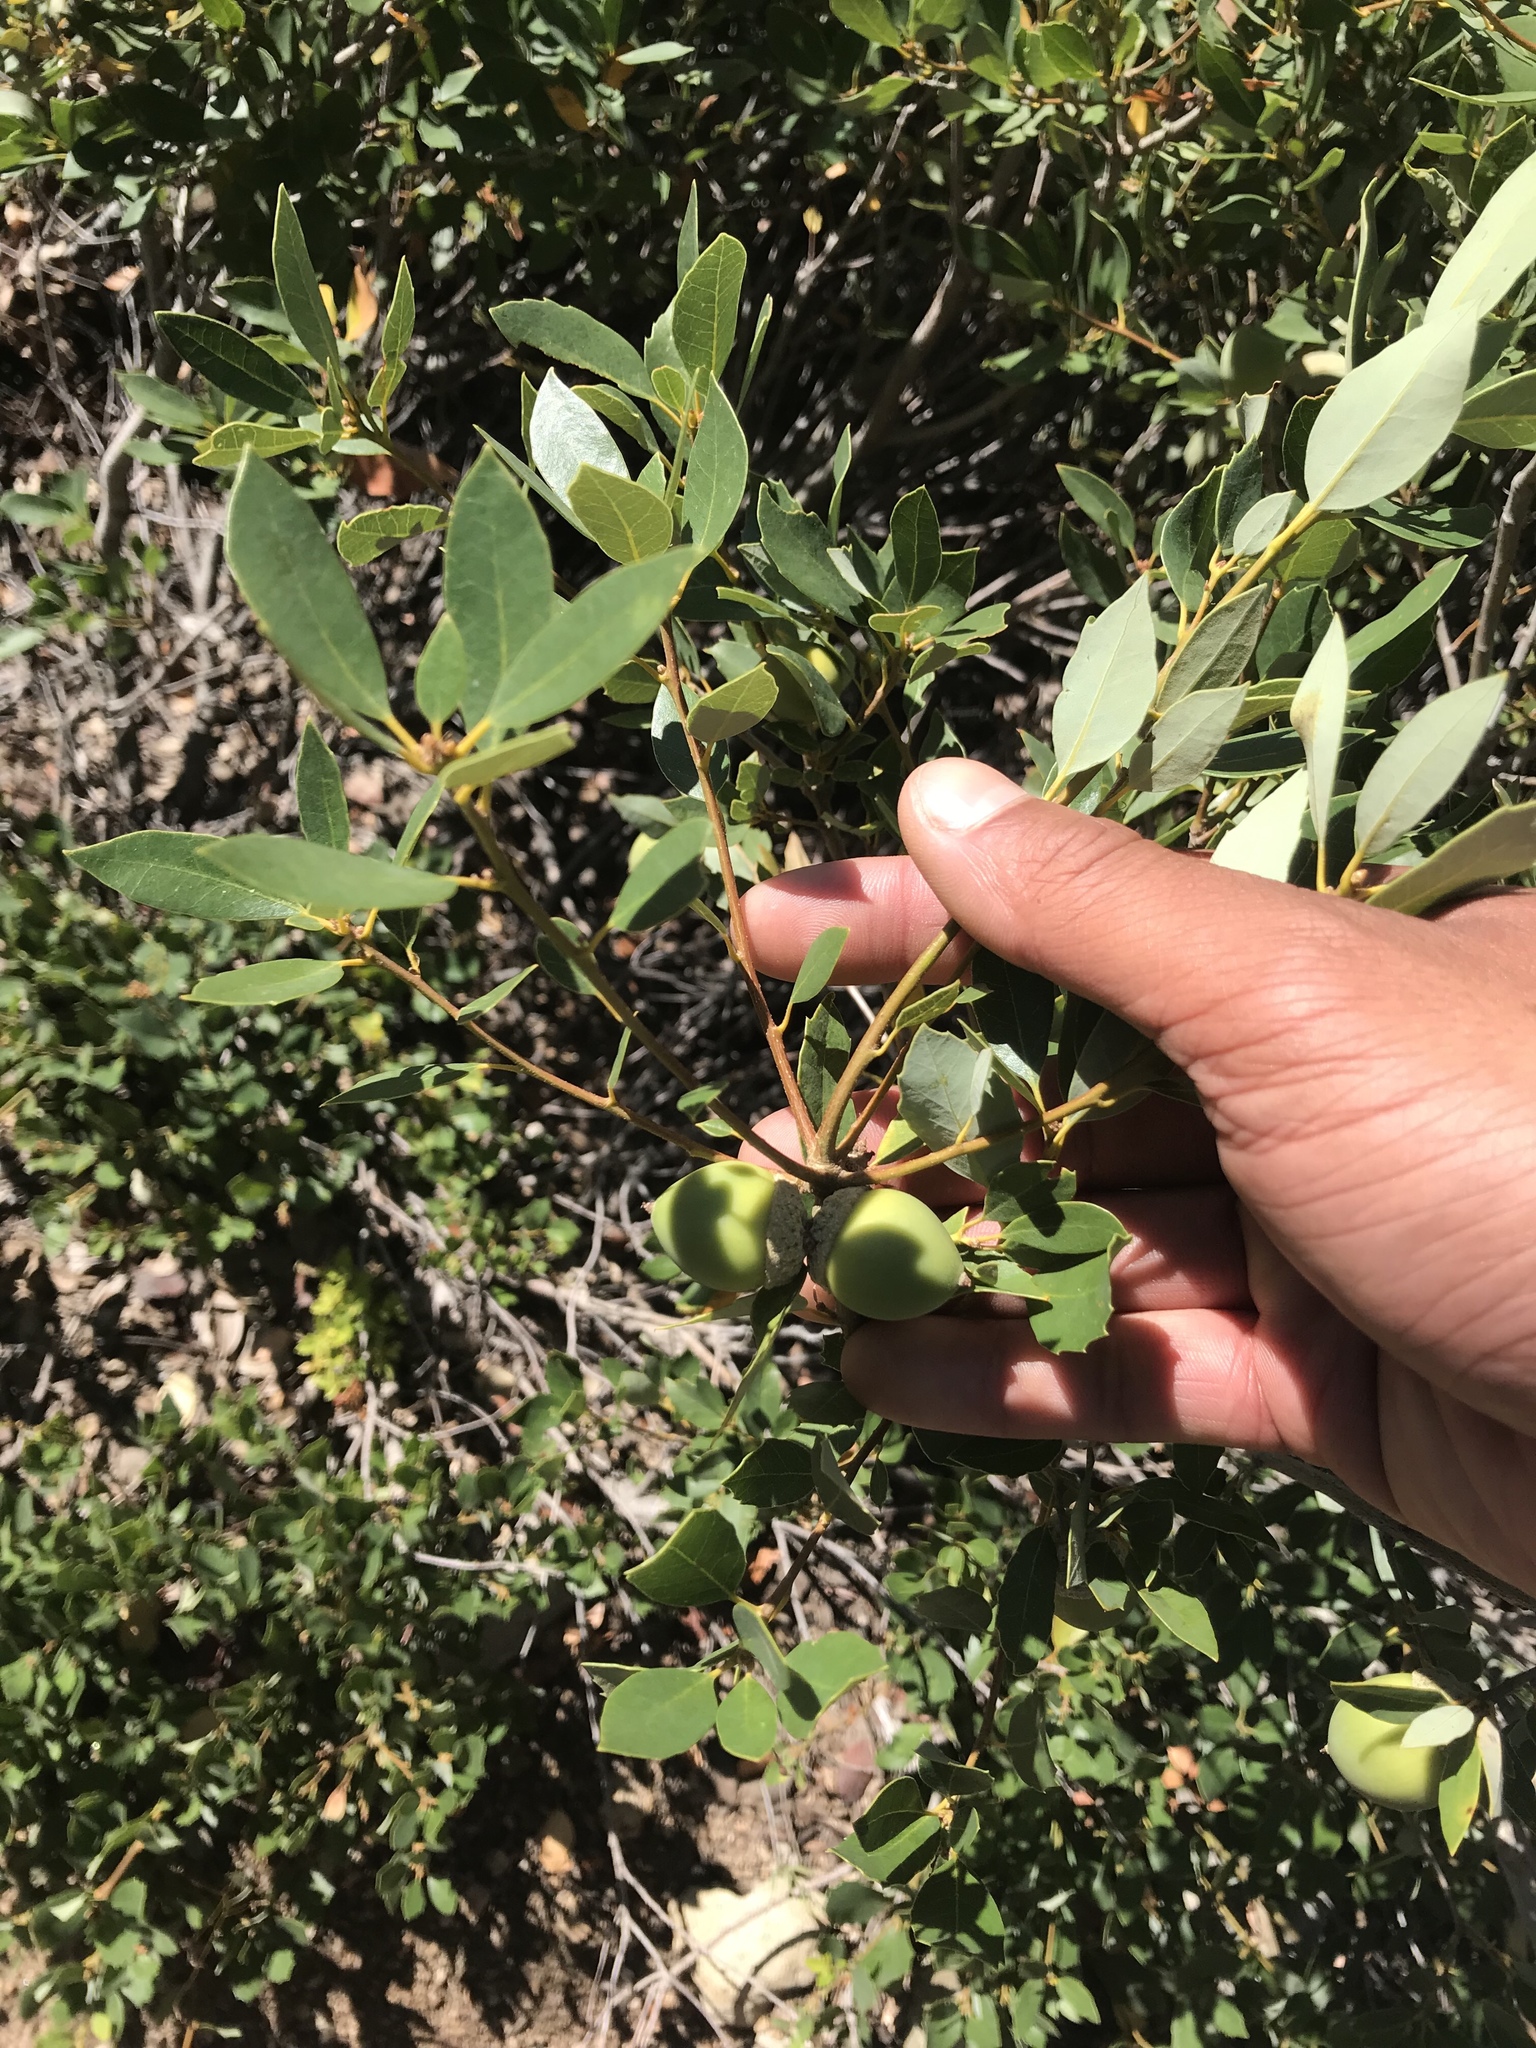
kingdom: Plantae
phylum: Tracheophyta
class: Magnoliopsida
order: Fagales
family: Fagaceae
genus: Quercus
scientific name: Quercus vacciniifolia
